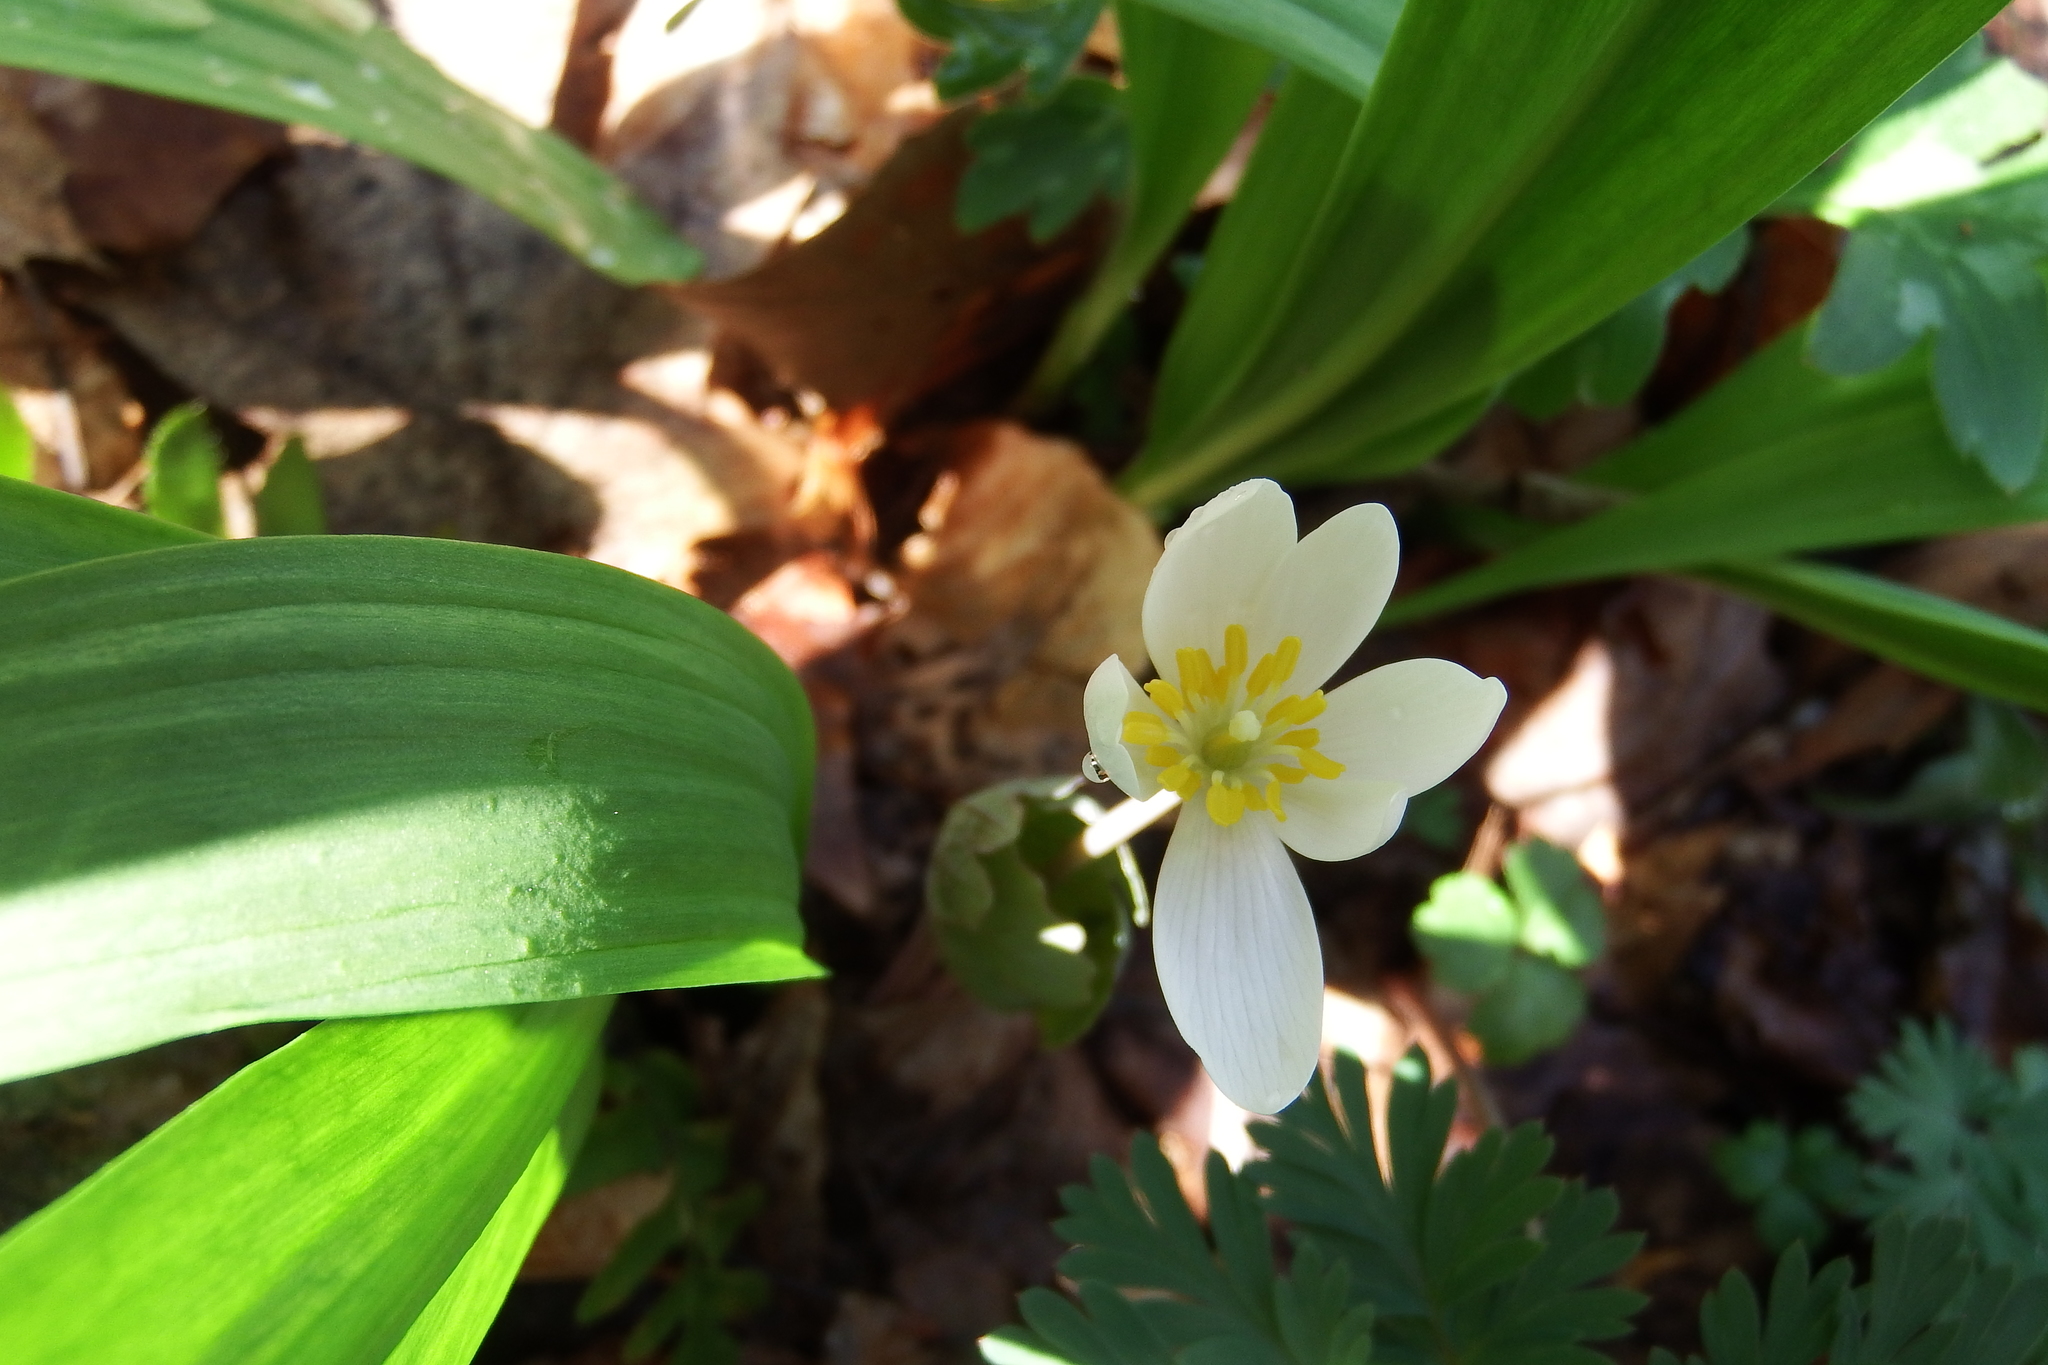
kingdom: Plantae
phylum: Tracheophyta
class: Magnoliopsida
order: Ranunculales
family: Papaveraceae
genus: Sanguinaria
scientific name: Sanguinaria canadensis
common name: Bloodroot
